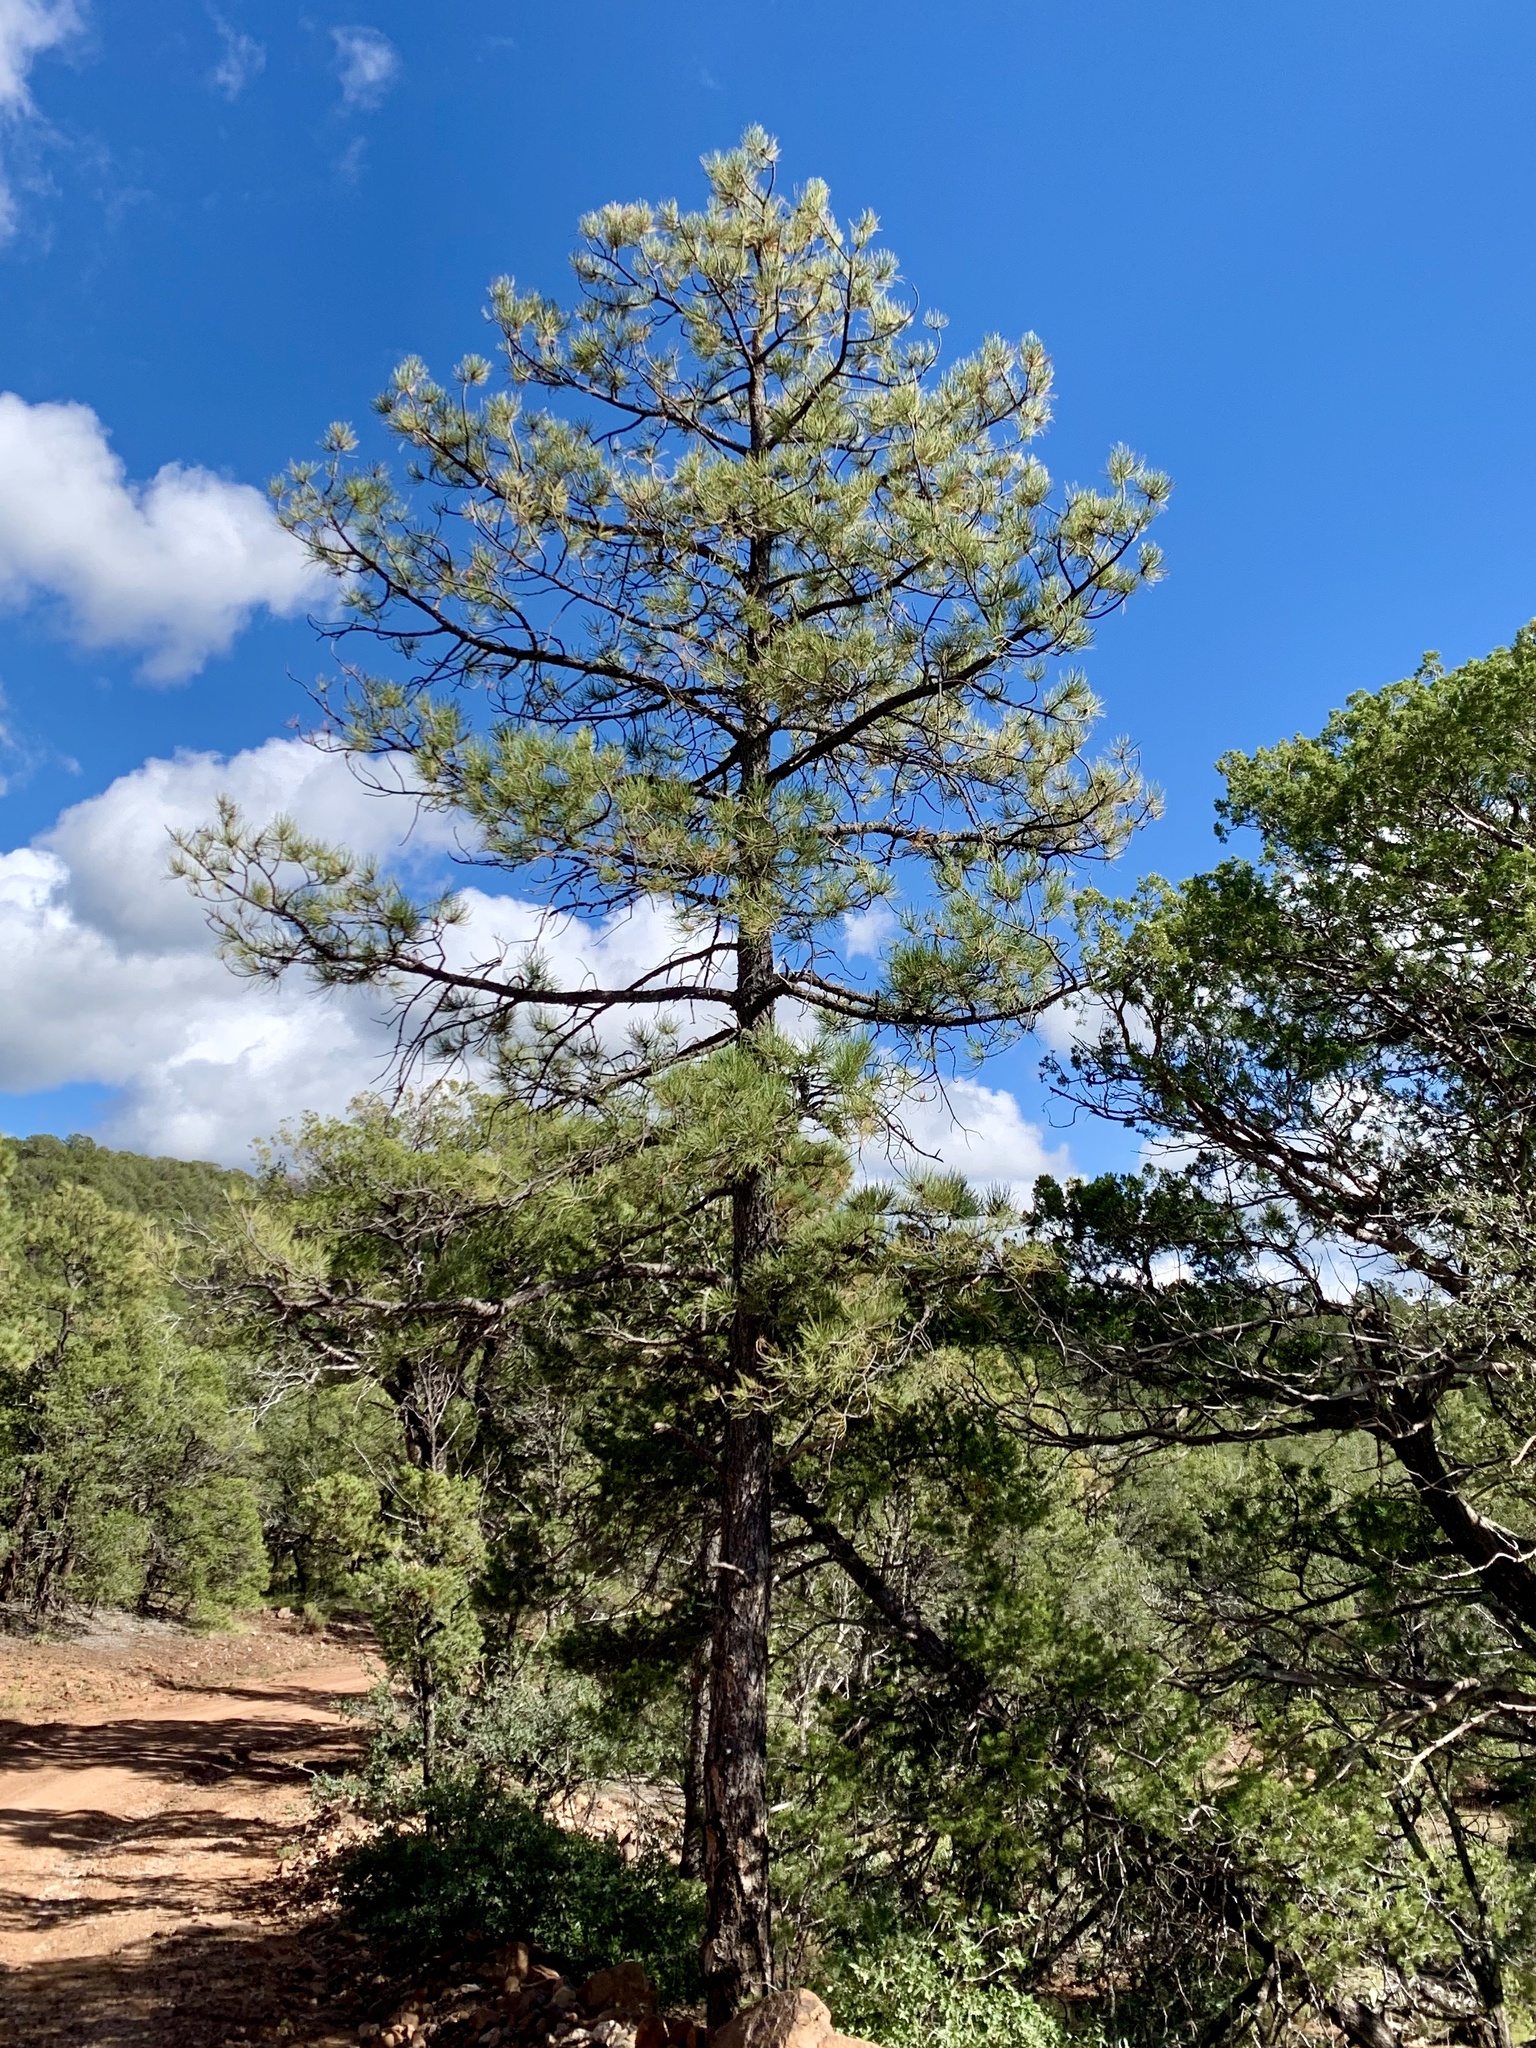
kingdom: Plantae
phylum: Tracheophyta
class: Pinopsida
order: Pinales
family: Pinaceae
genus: Pinus
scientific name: Pinus ponderosa
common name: Western yellow-pine
